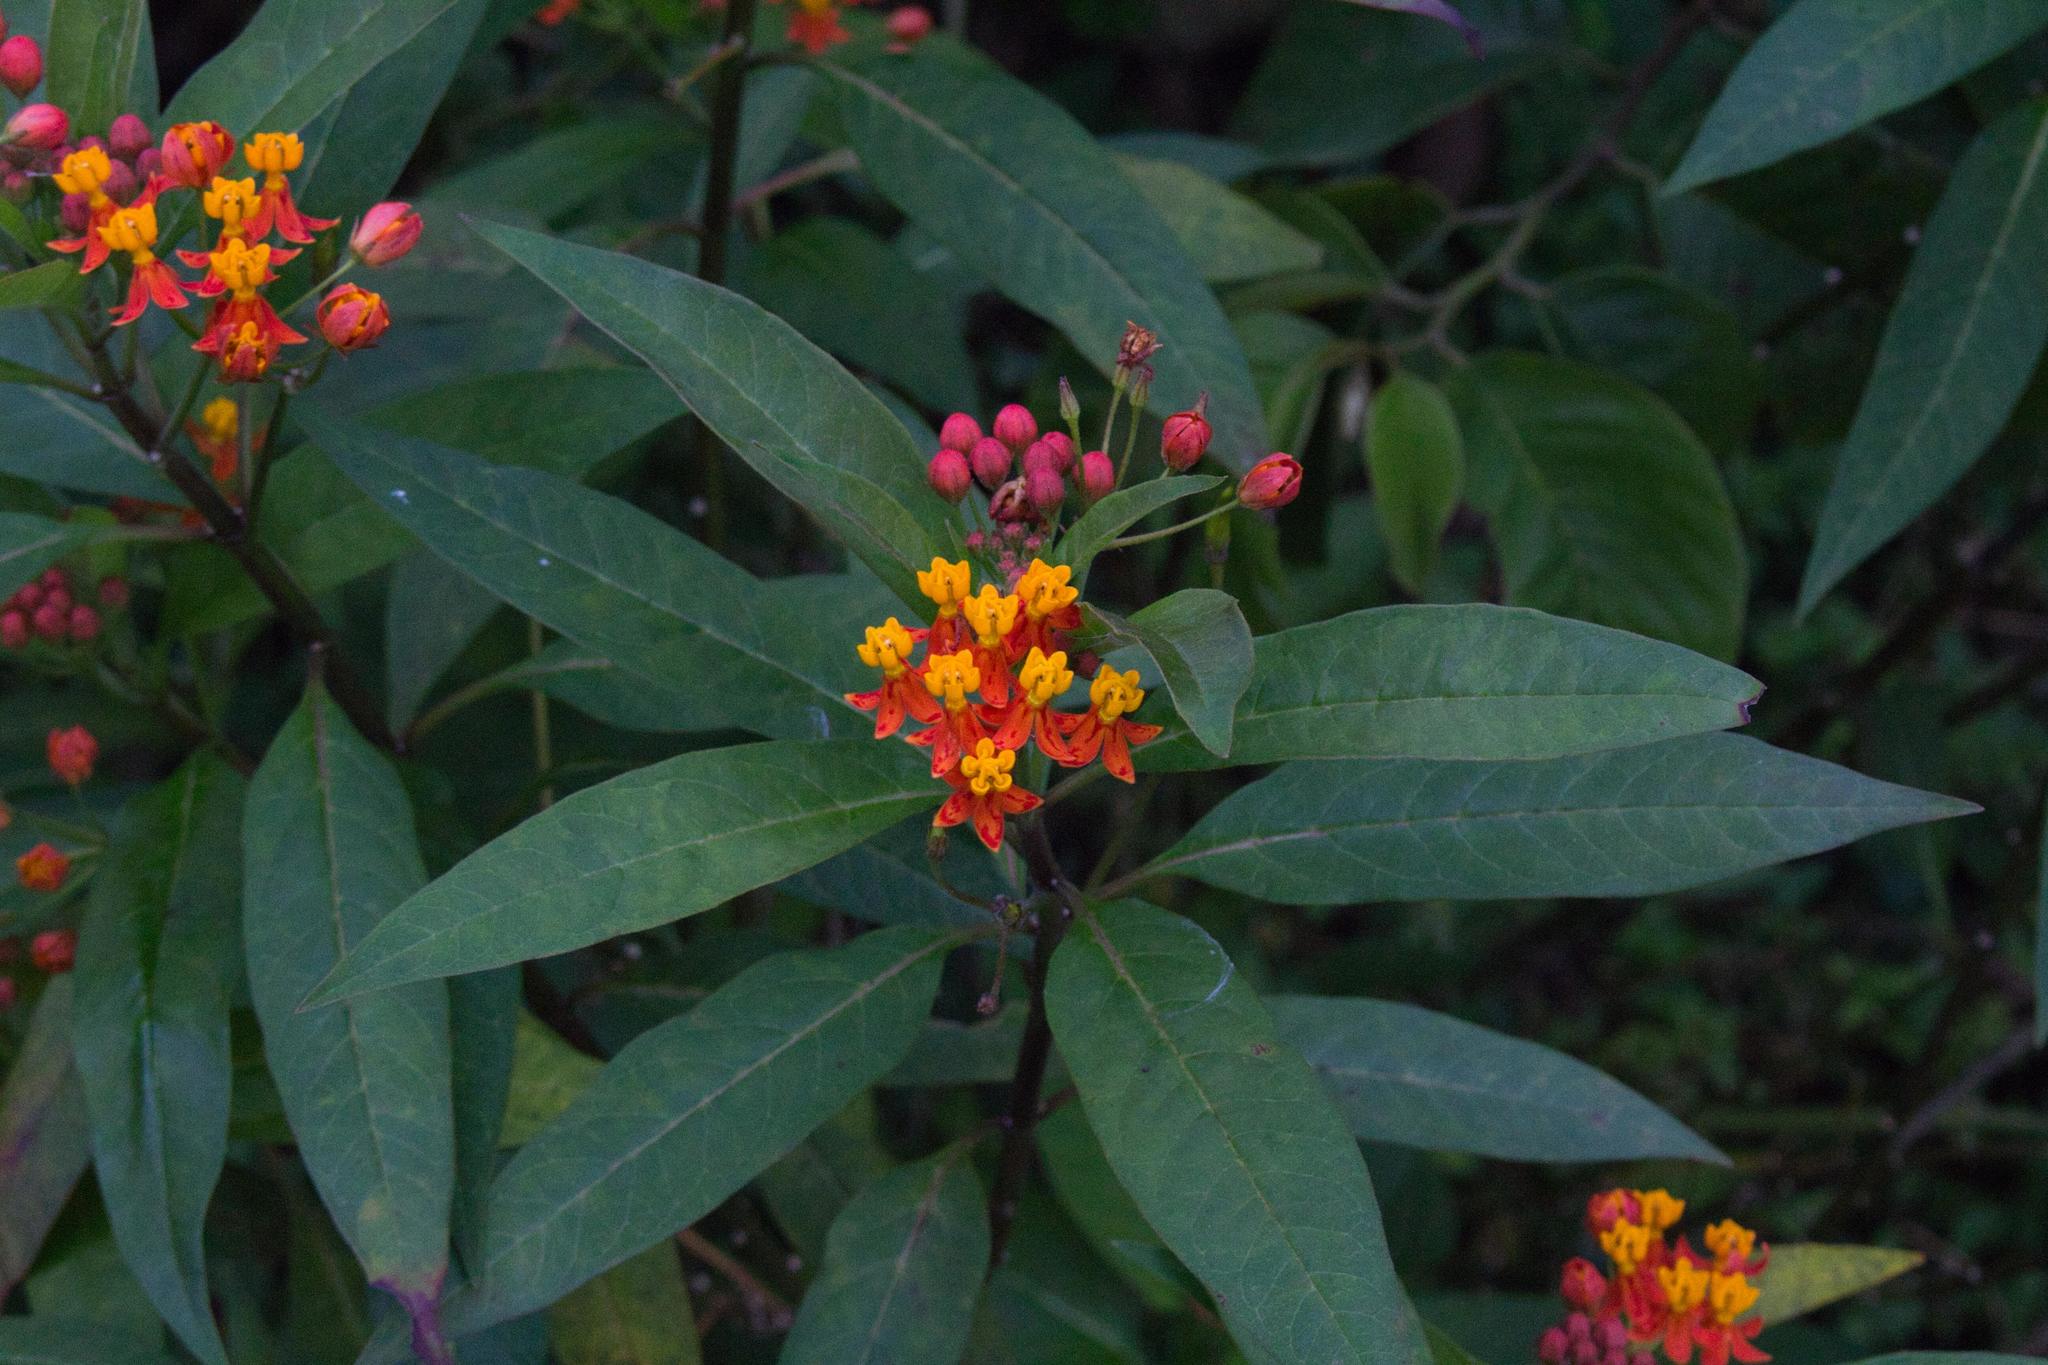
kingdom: Plantae
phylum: Tracheophyta
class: Magnoliopsida
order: Gentianales
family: Apocynaceae
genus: Asclepias
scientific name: Asclepias curassavica
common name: Bloodflower
